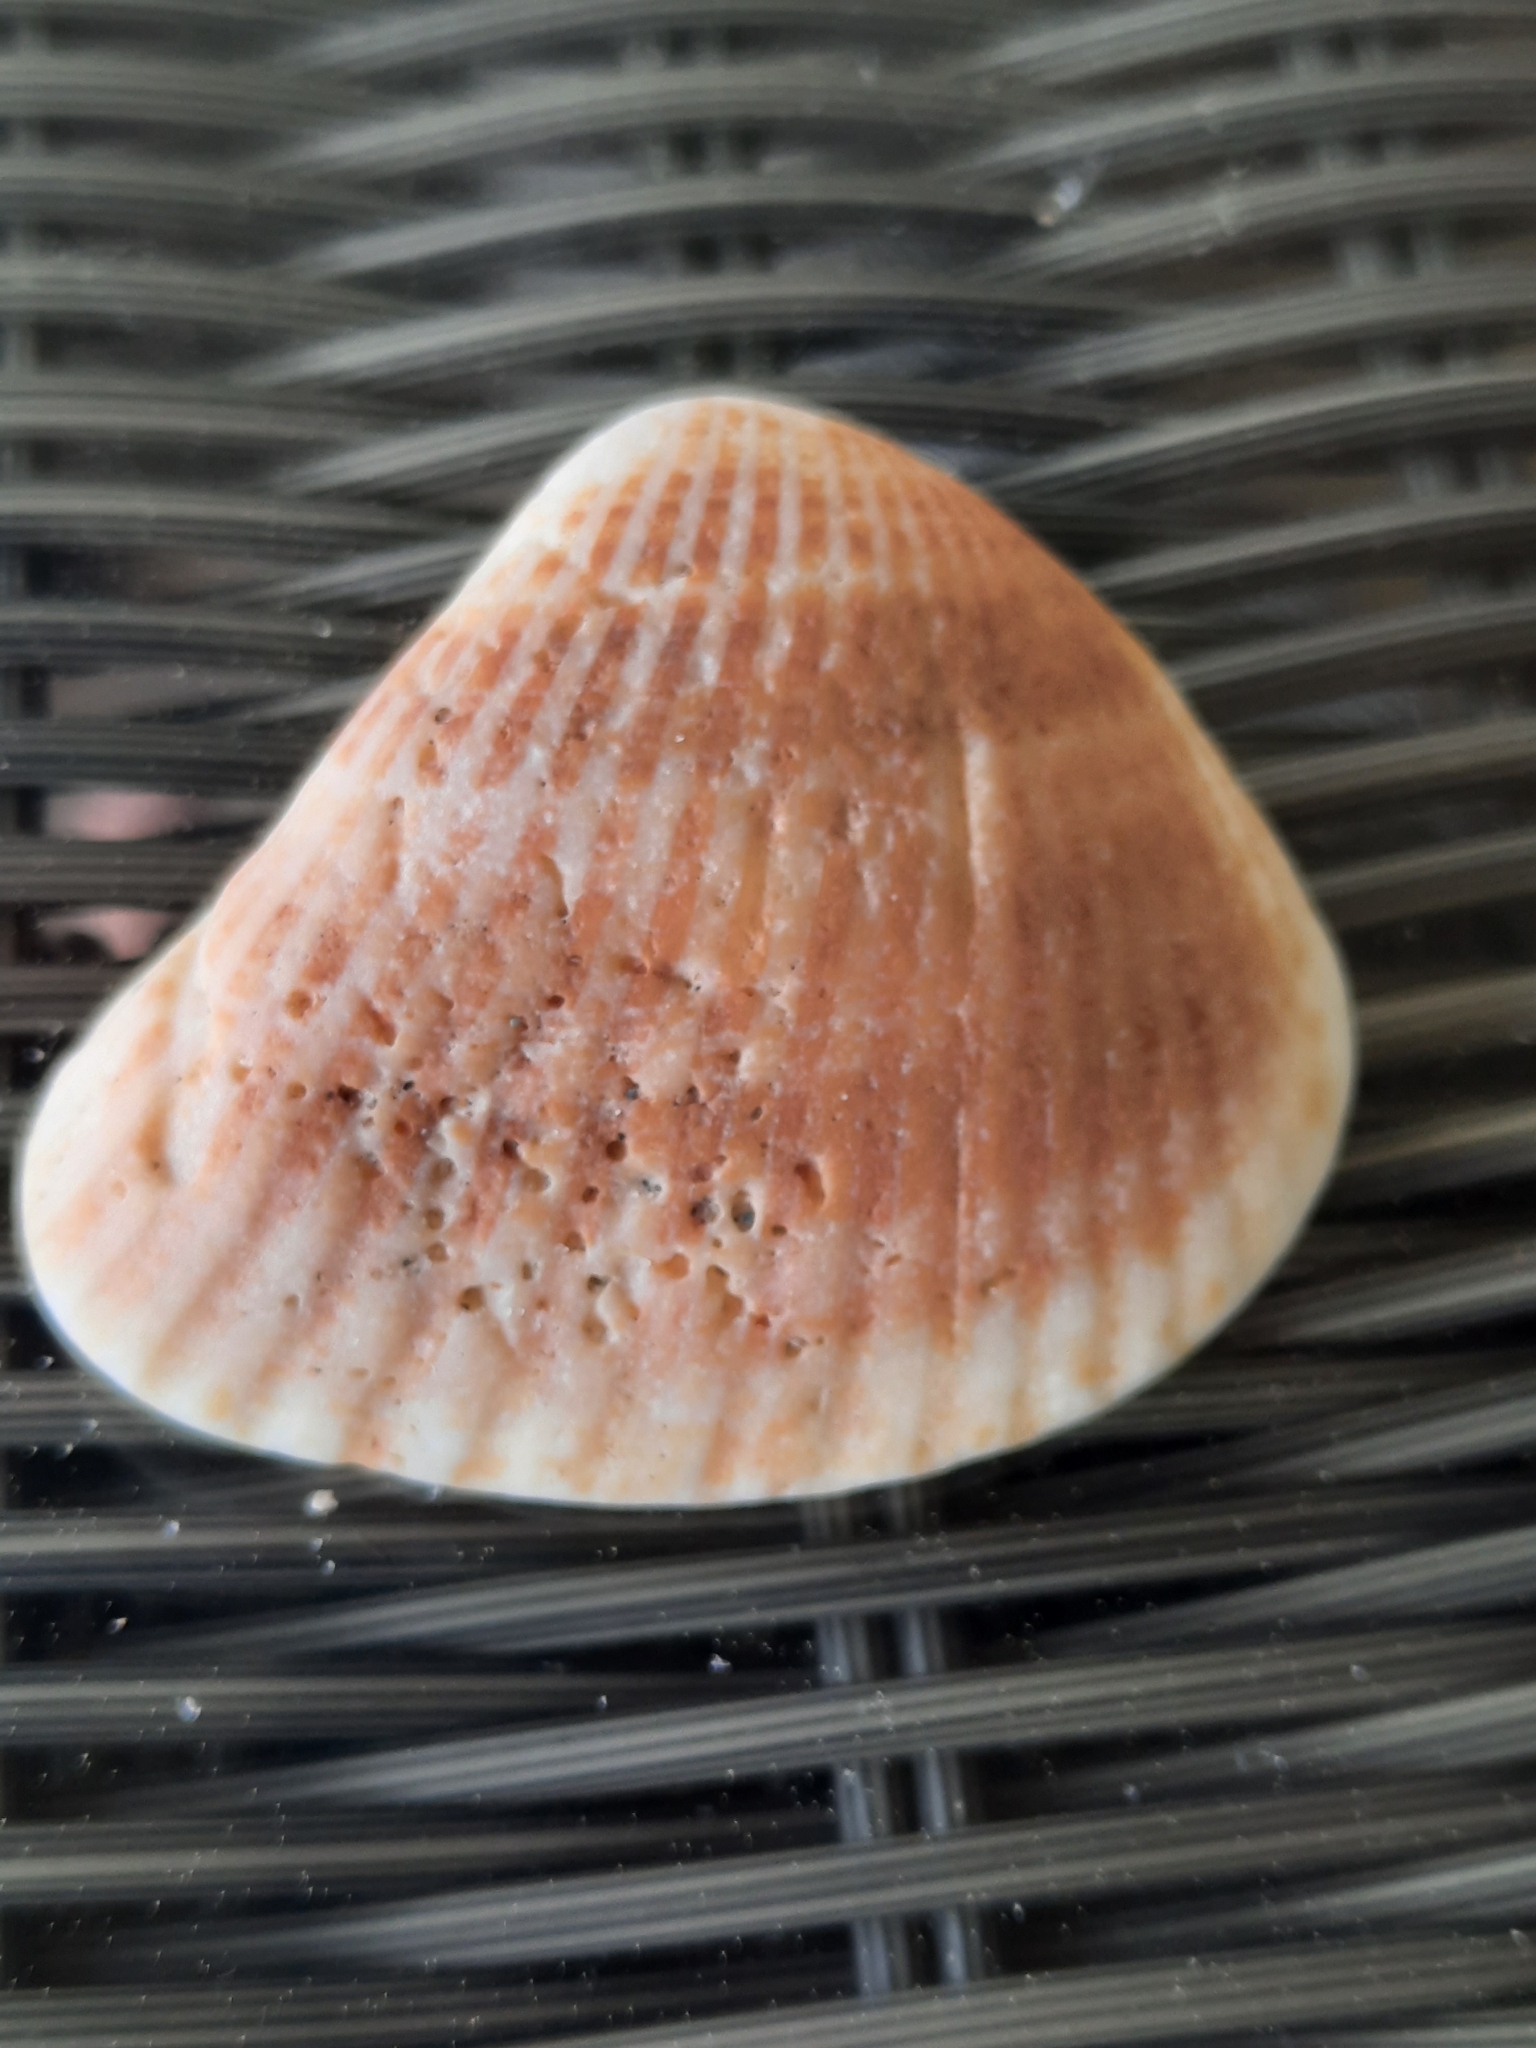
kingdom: Animalia
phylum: Mollusca
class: Bivalvia
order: Arcida
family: Noetiidae
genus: Noetia
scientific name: Noetia ponderosa
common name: Ponderous ark
